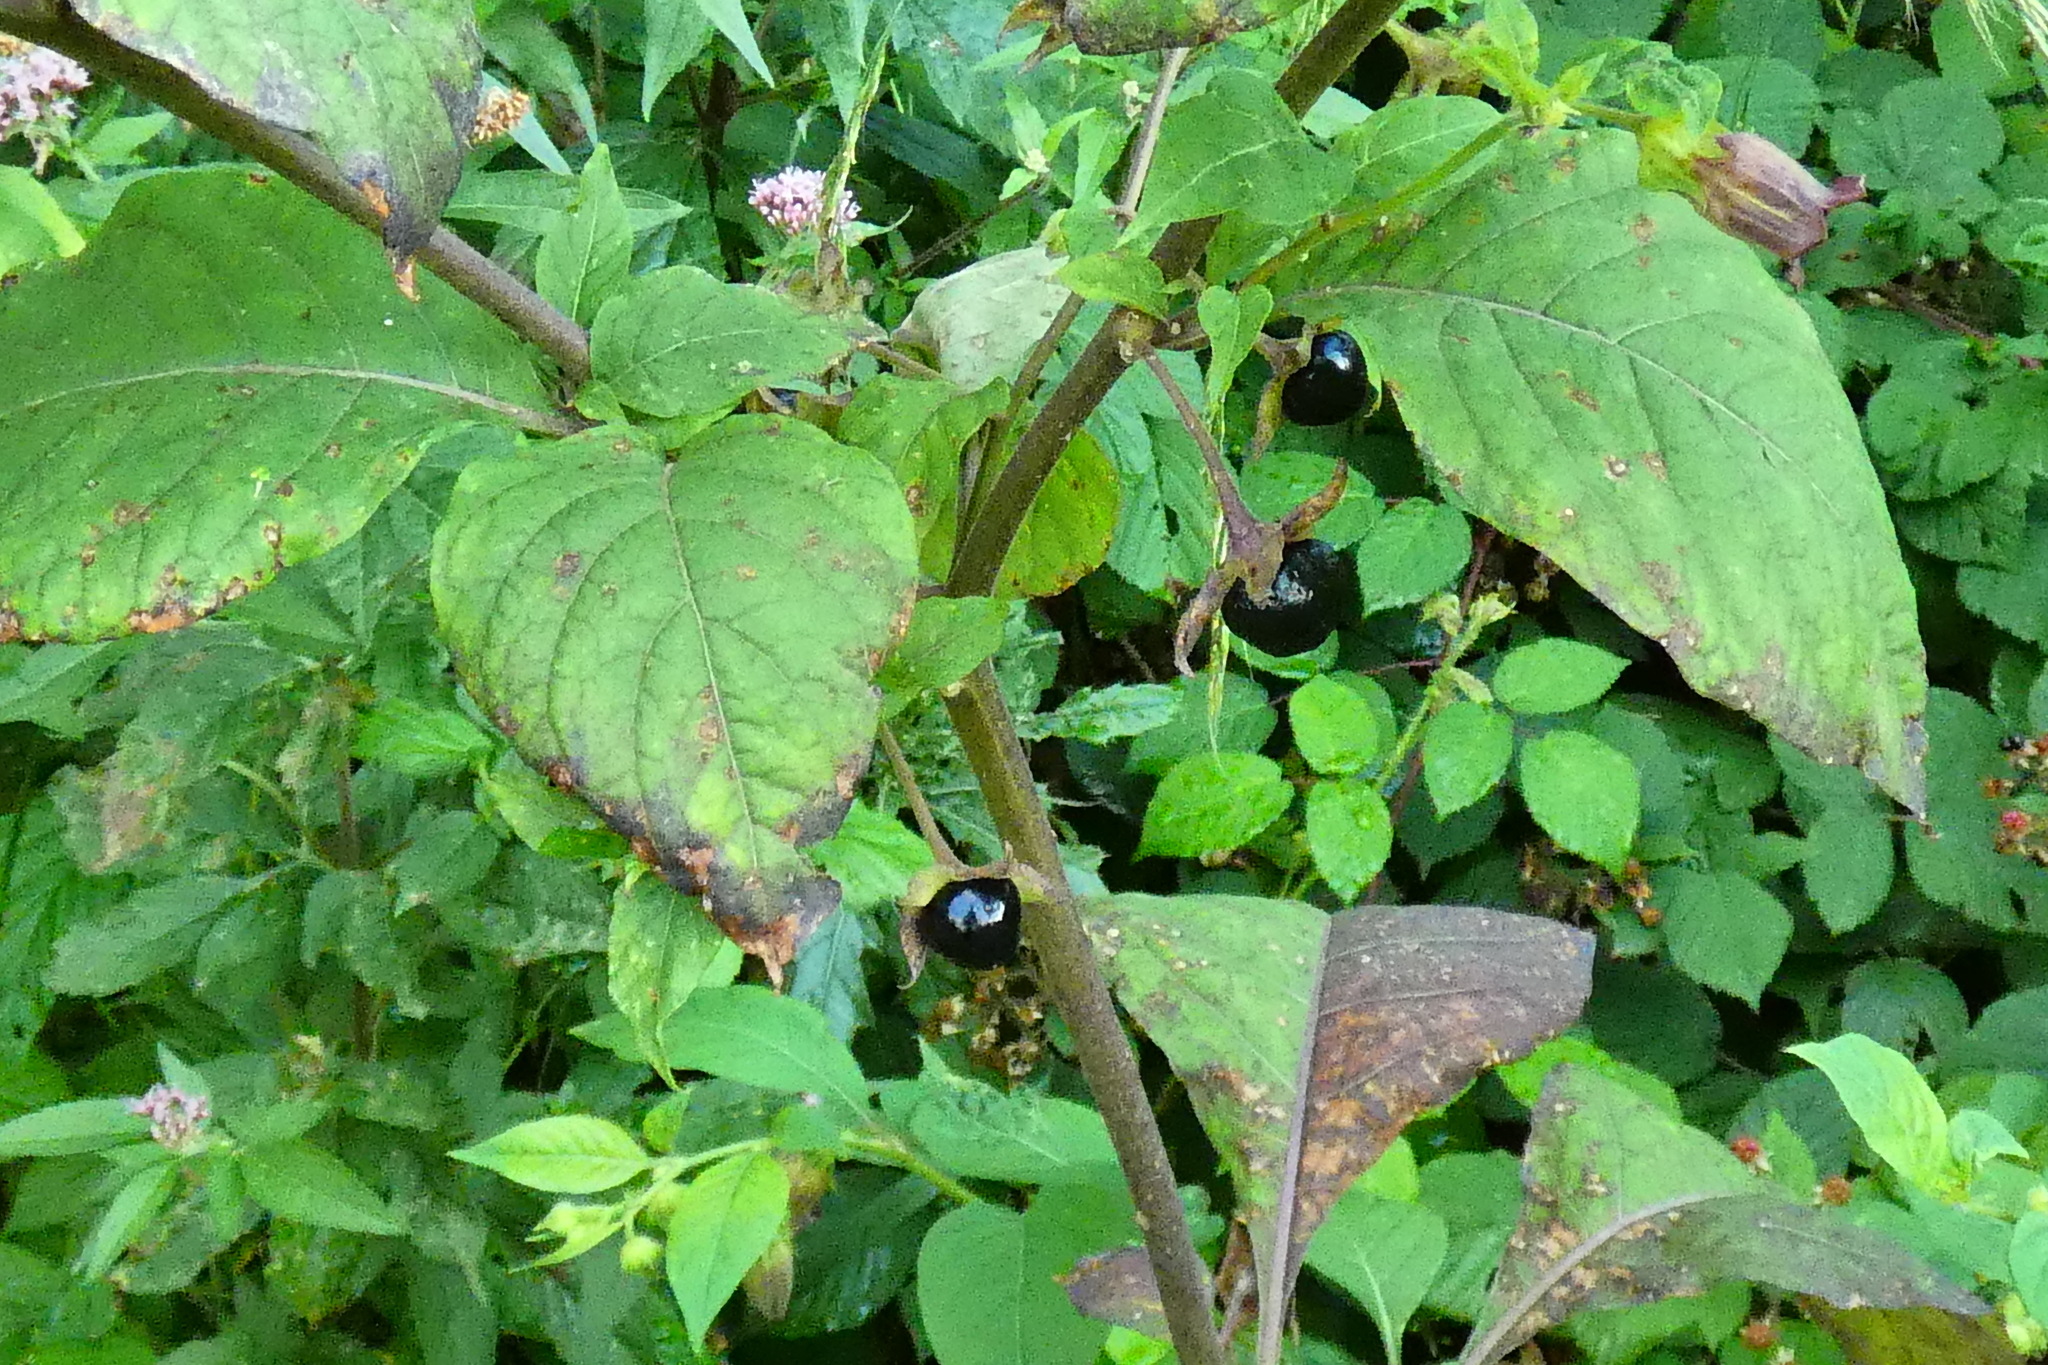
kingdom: Plantae
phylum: Tracheophyta
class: Magnoliopsida
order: Solanales
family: Solanaceae
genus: Atropa
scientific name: Atropa belladonna
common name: Deadly nightshade
